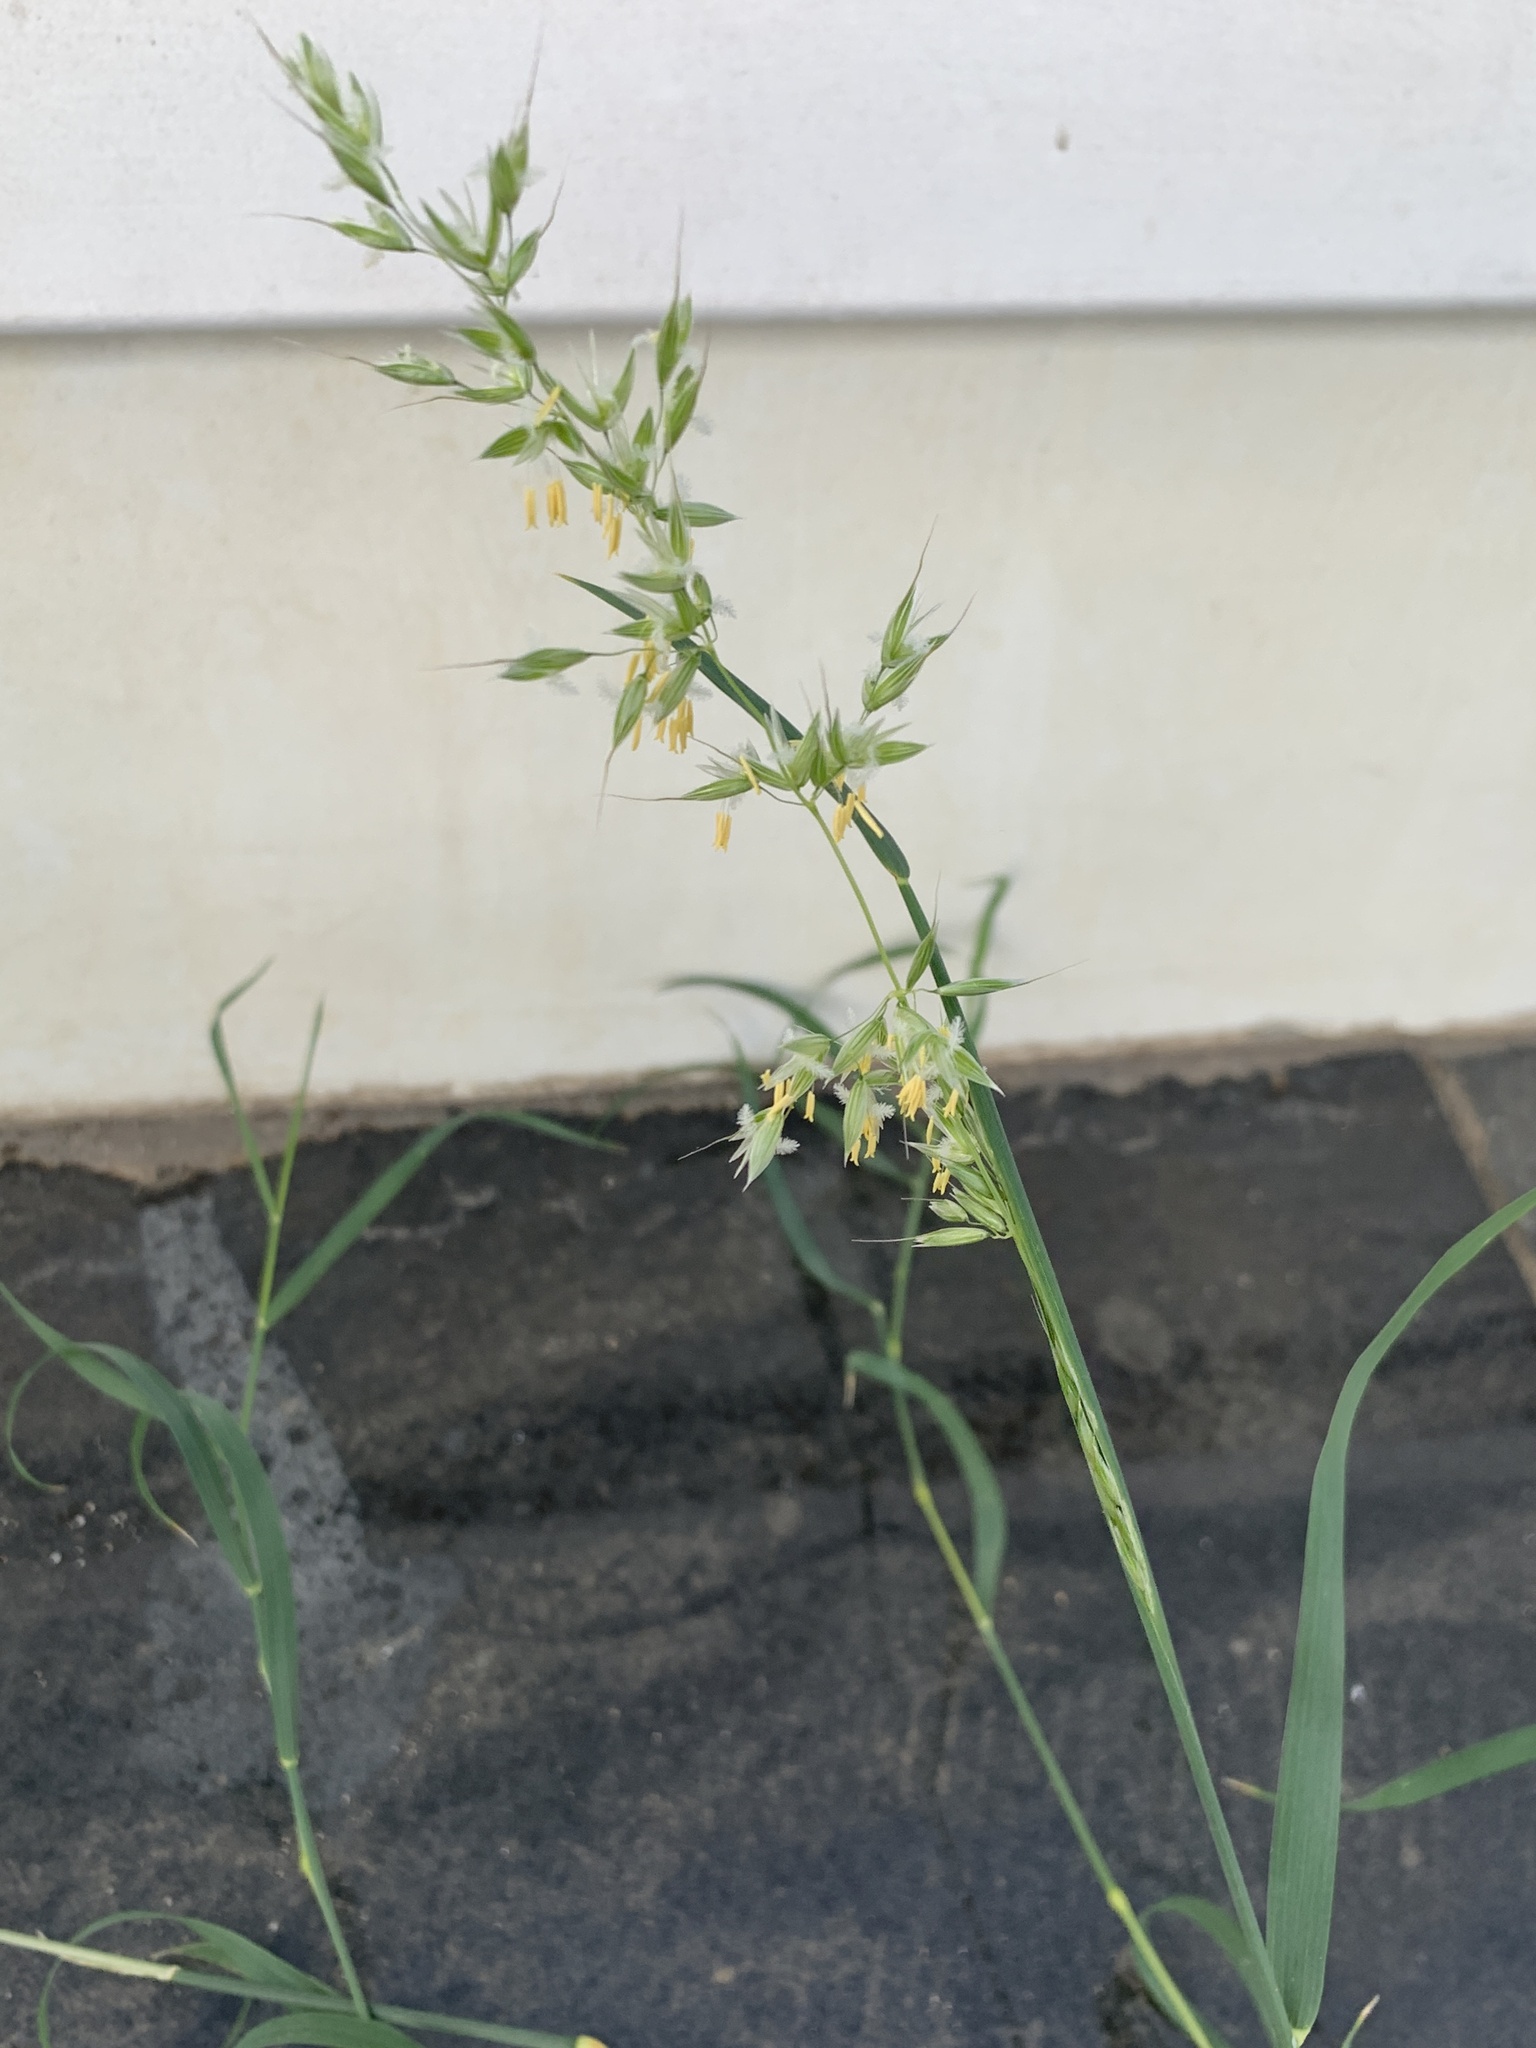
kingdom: Plantae
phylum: Tracheophyta
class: Liliopsida
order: Poales
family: Poaceae
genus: Arrhenatherum
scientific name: Arrhenatherum elatius
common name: Tall oatgrass
